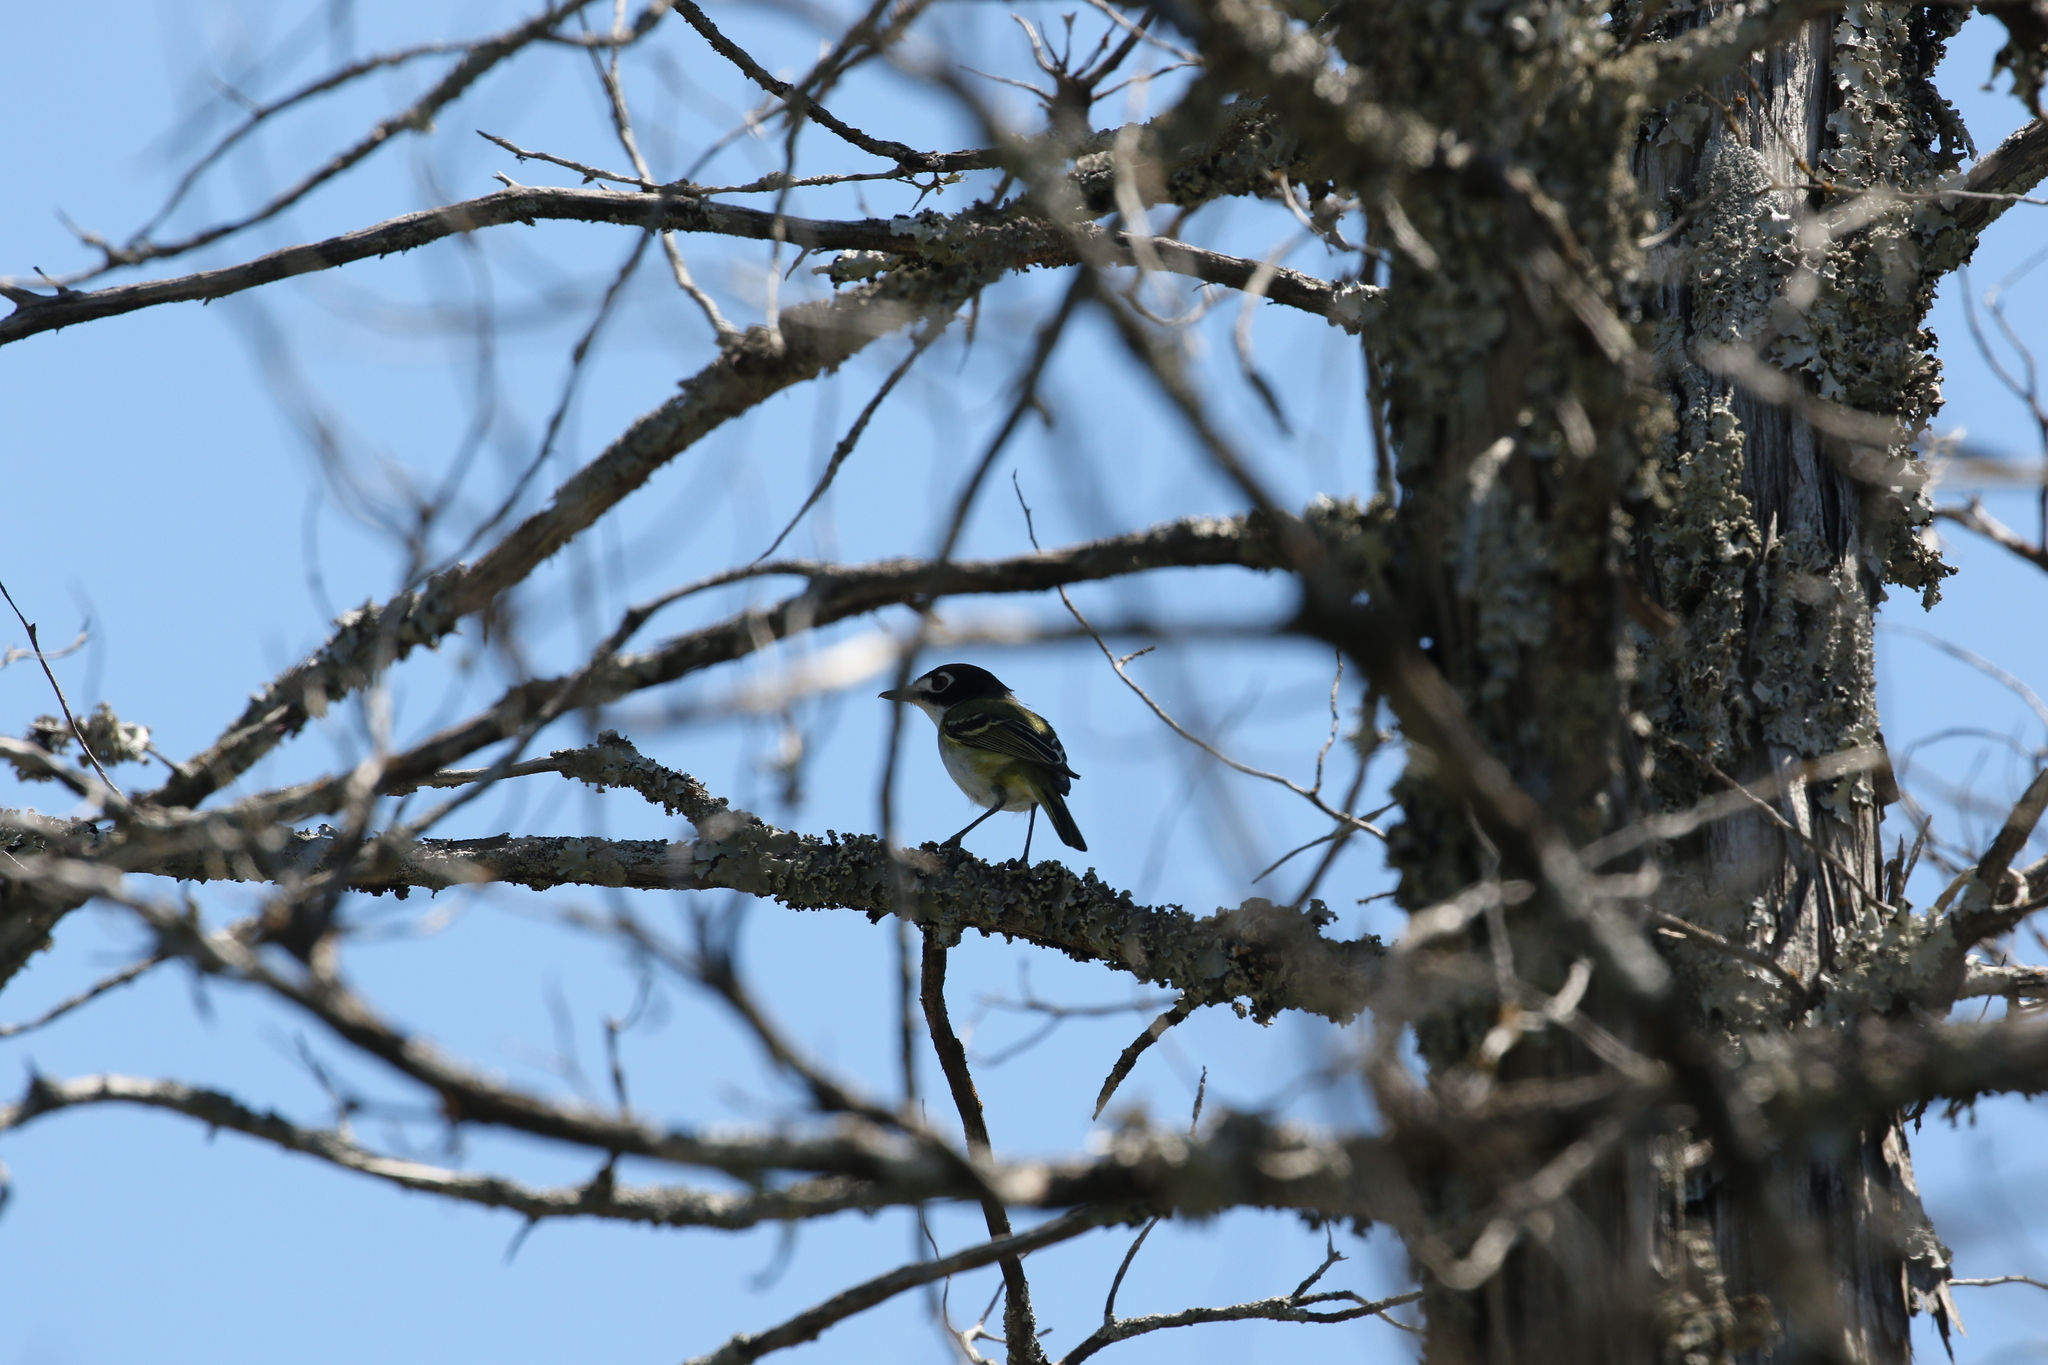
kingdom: Animalia
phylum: Chordata
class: Aves
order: Passeriformes
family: Vireonidae
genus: Vireo
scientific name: Vireo atricapilla
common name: Black-capped vireo
